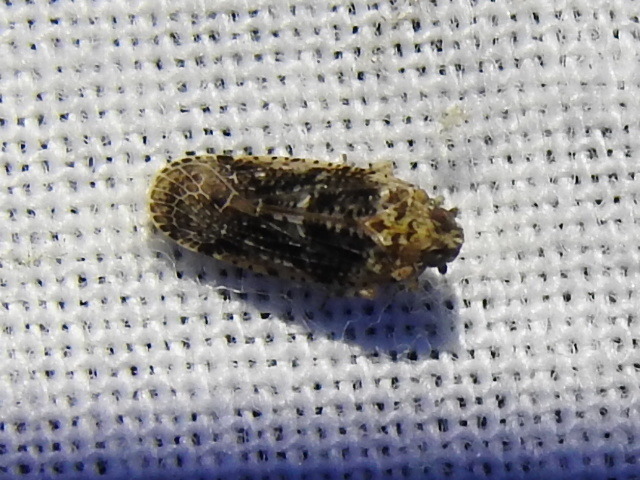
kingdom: Animalia
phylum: Arthropoda
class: Insecta
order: Hemiptera
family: Achilidae
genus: Catonia
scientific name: Catonia nava
